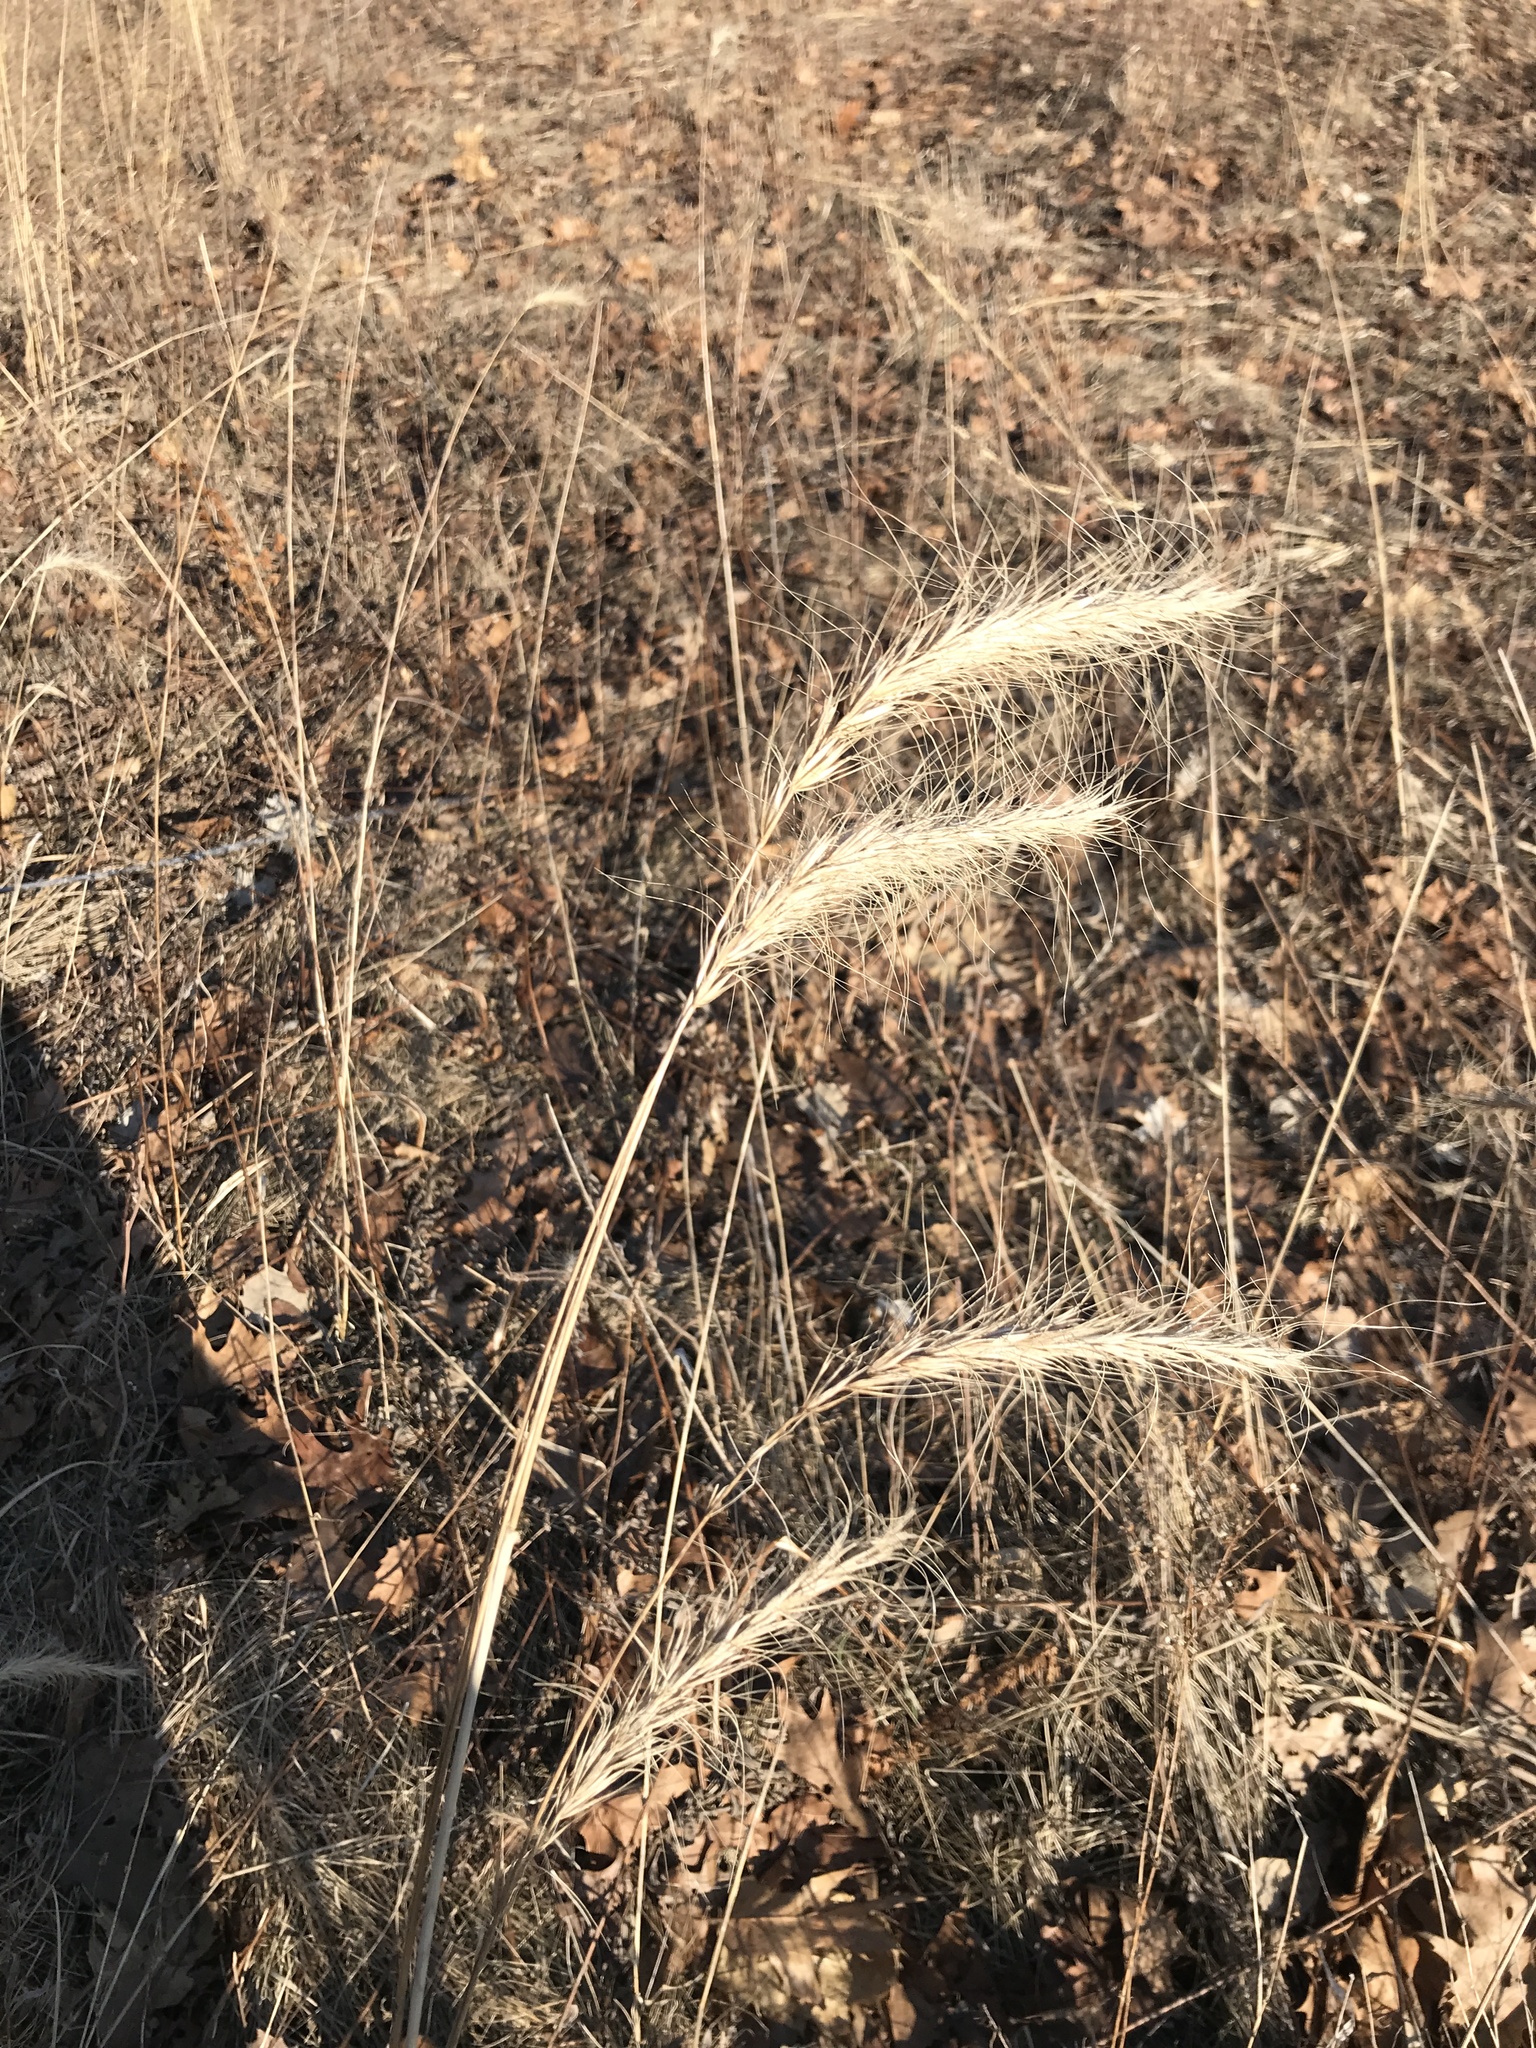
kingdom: Plantae
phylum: Tracheophyta
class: Liliopsida
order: Poales
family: Poaceae
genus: Elymus
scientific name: Elymus canadensis
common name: Canada wild rye
